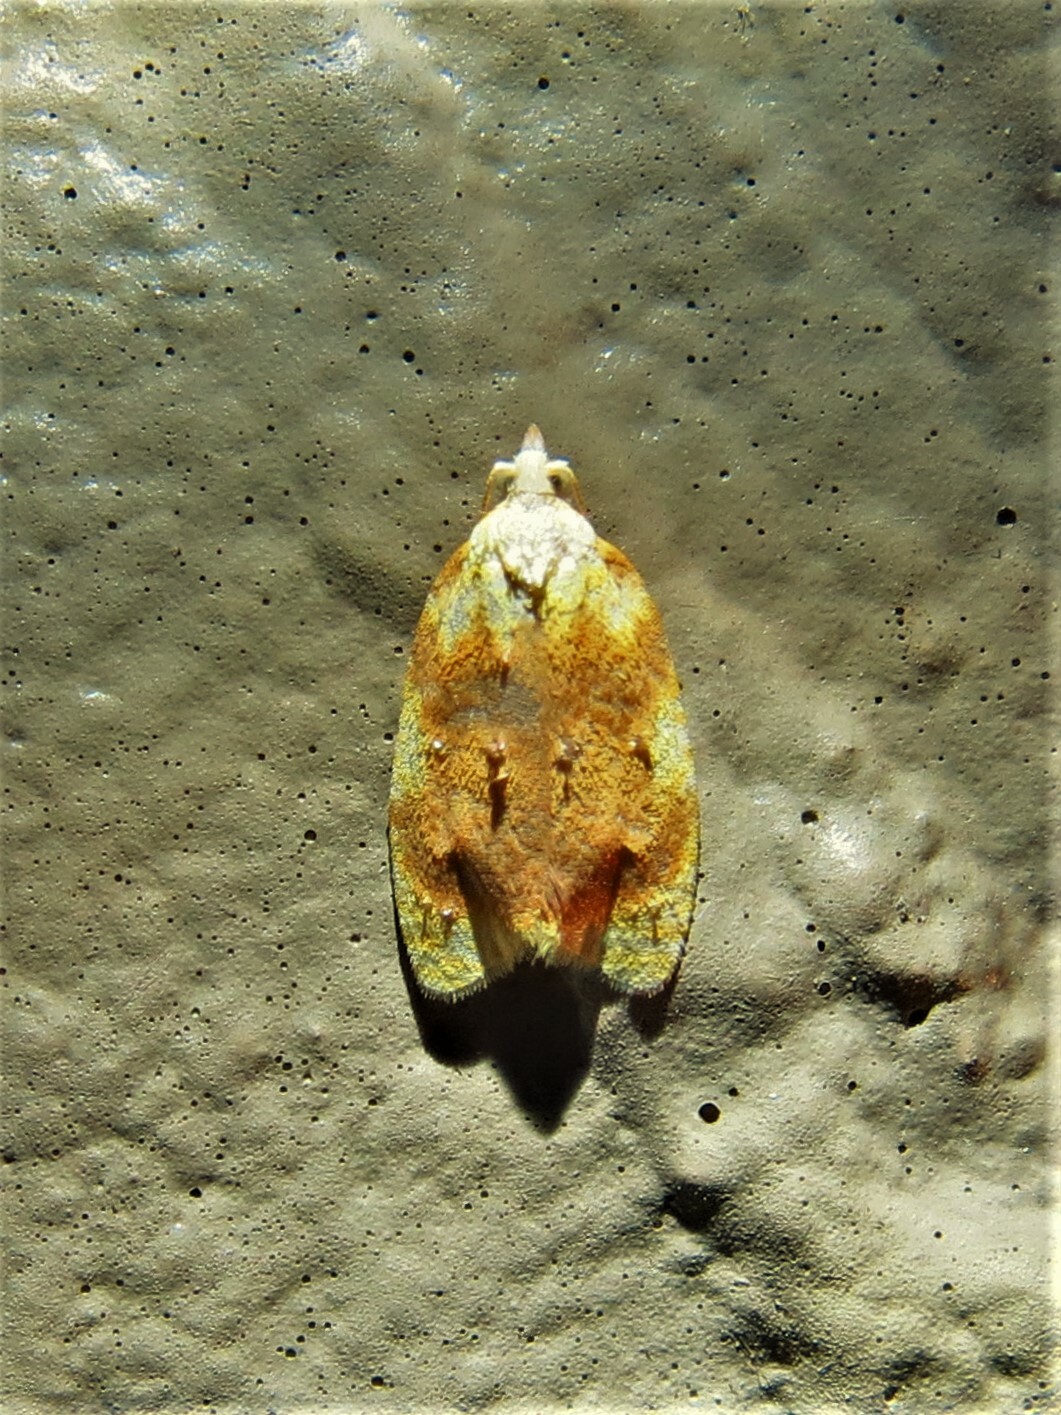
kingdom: Animalia
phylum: Arthropoda
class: Insecta
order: Lepidoptera
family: Tortricidae
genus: Acleris
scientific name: Acleris semipurpurana
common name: Oak leaftier moth
